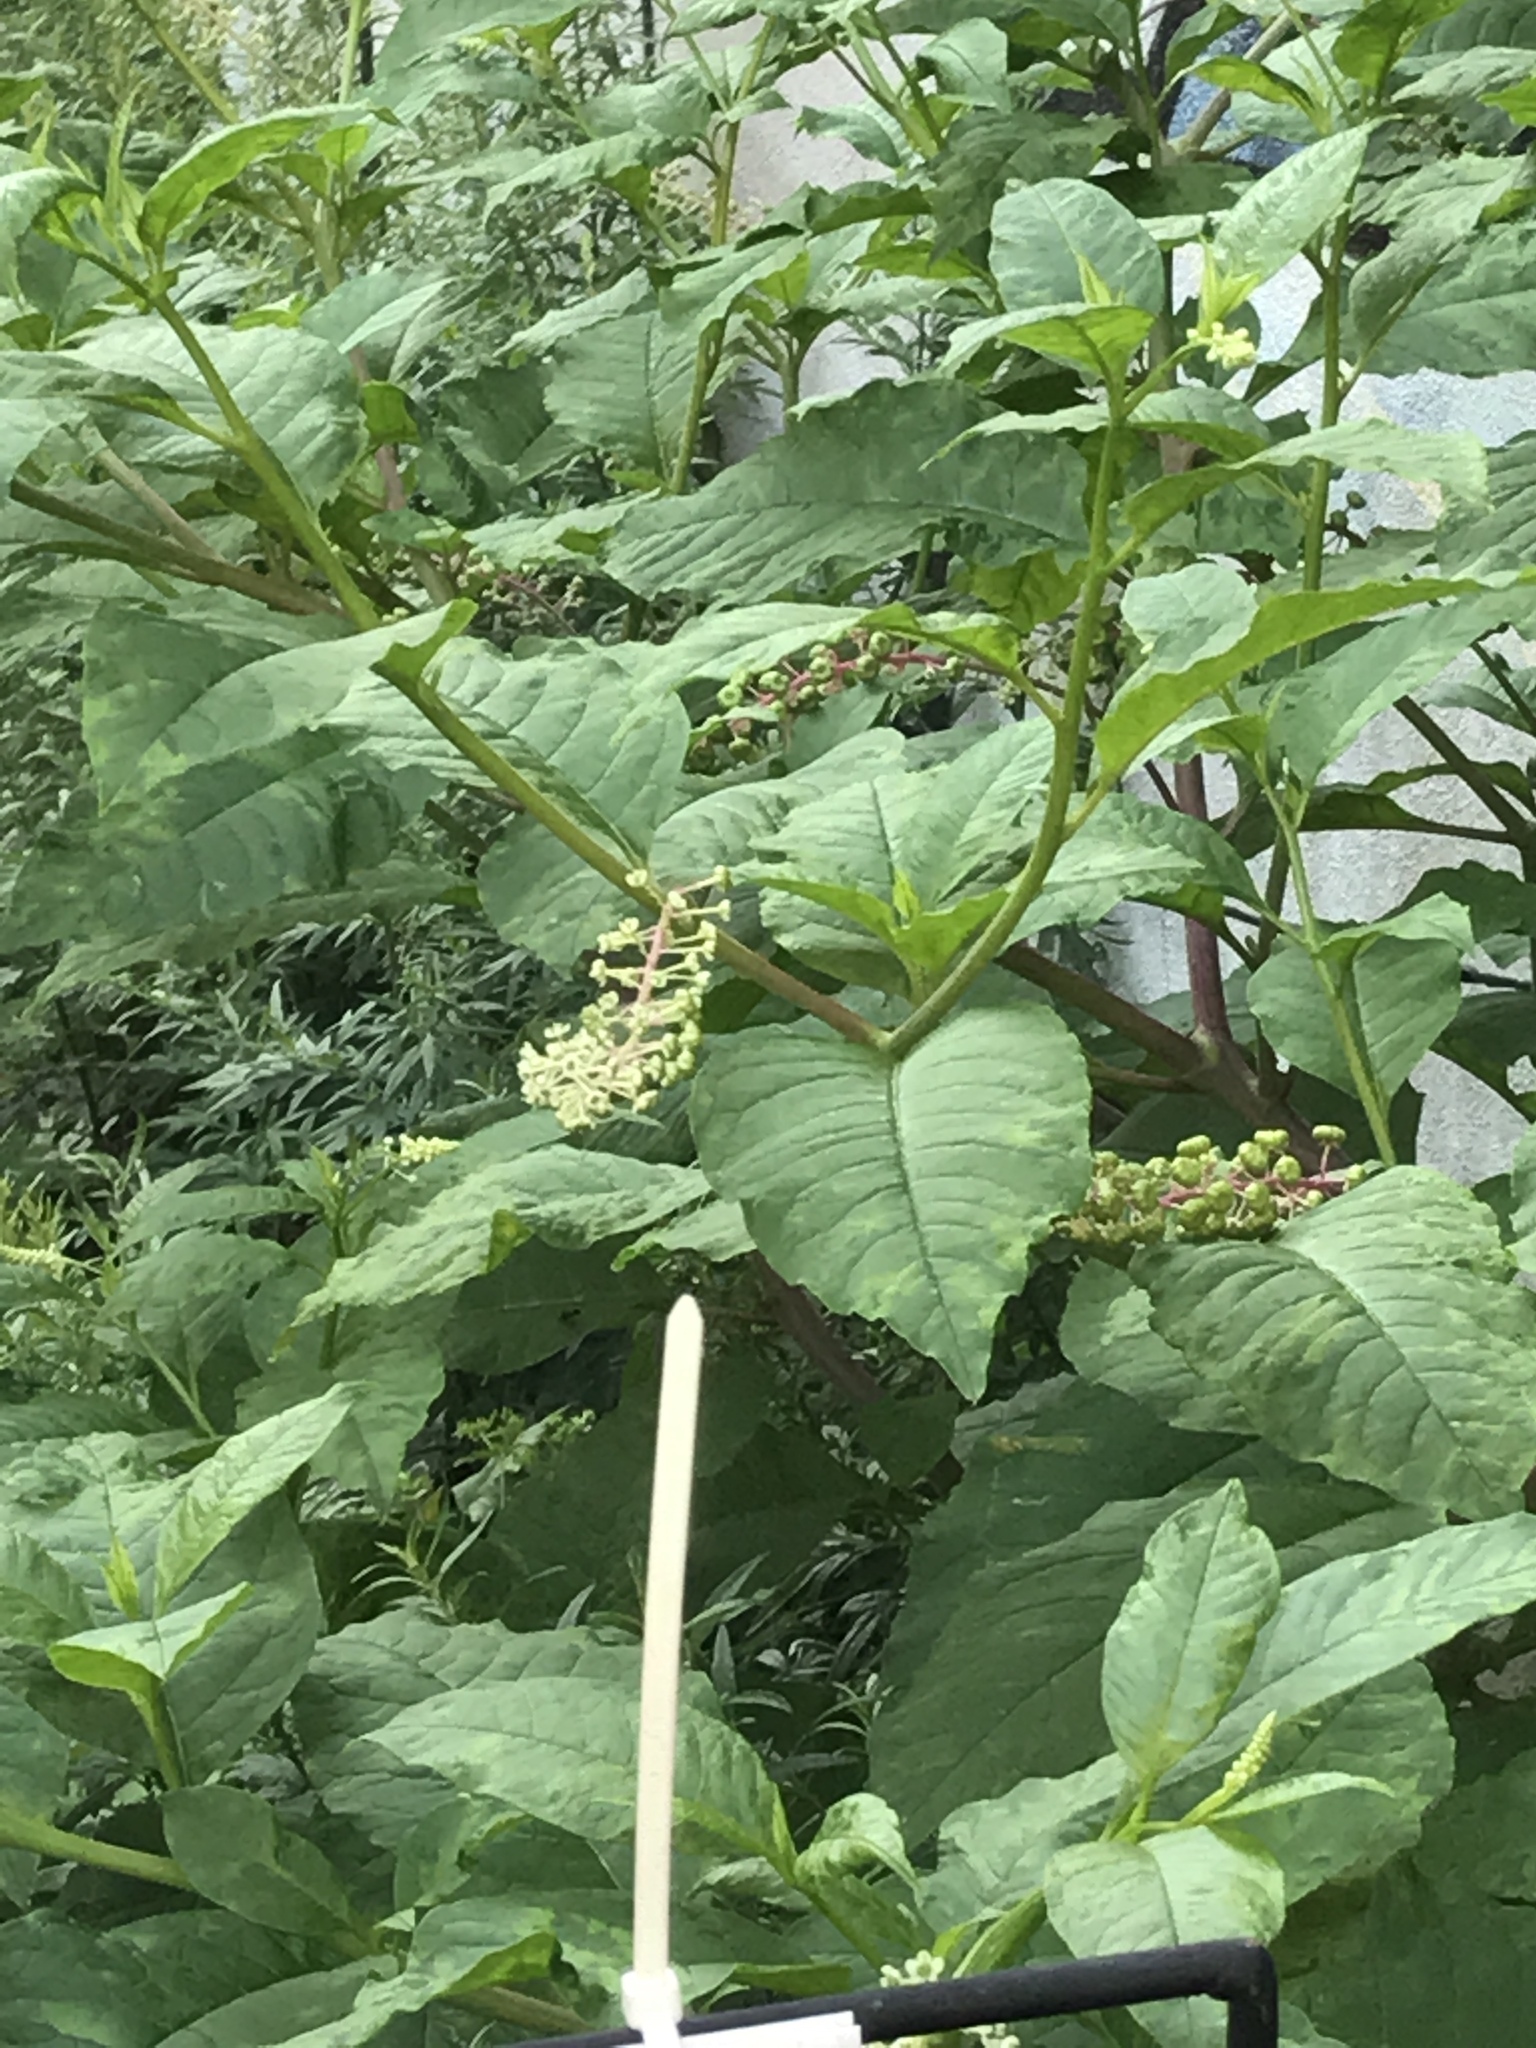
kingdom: Plantae
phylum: Tracheophyta
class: Magnoliopsida
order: Caryophyllales
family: Phytolaccaceae
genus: Phytolacca
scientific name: Phytolacca americana
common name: American pokeweed
